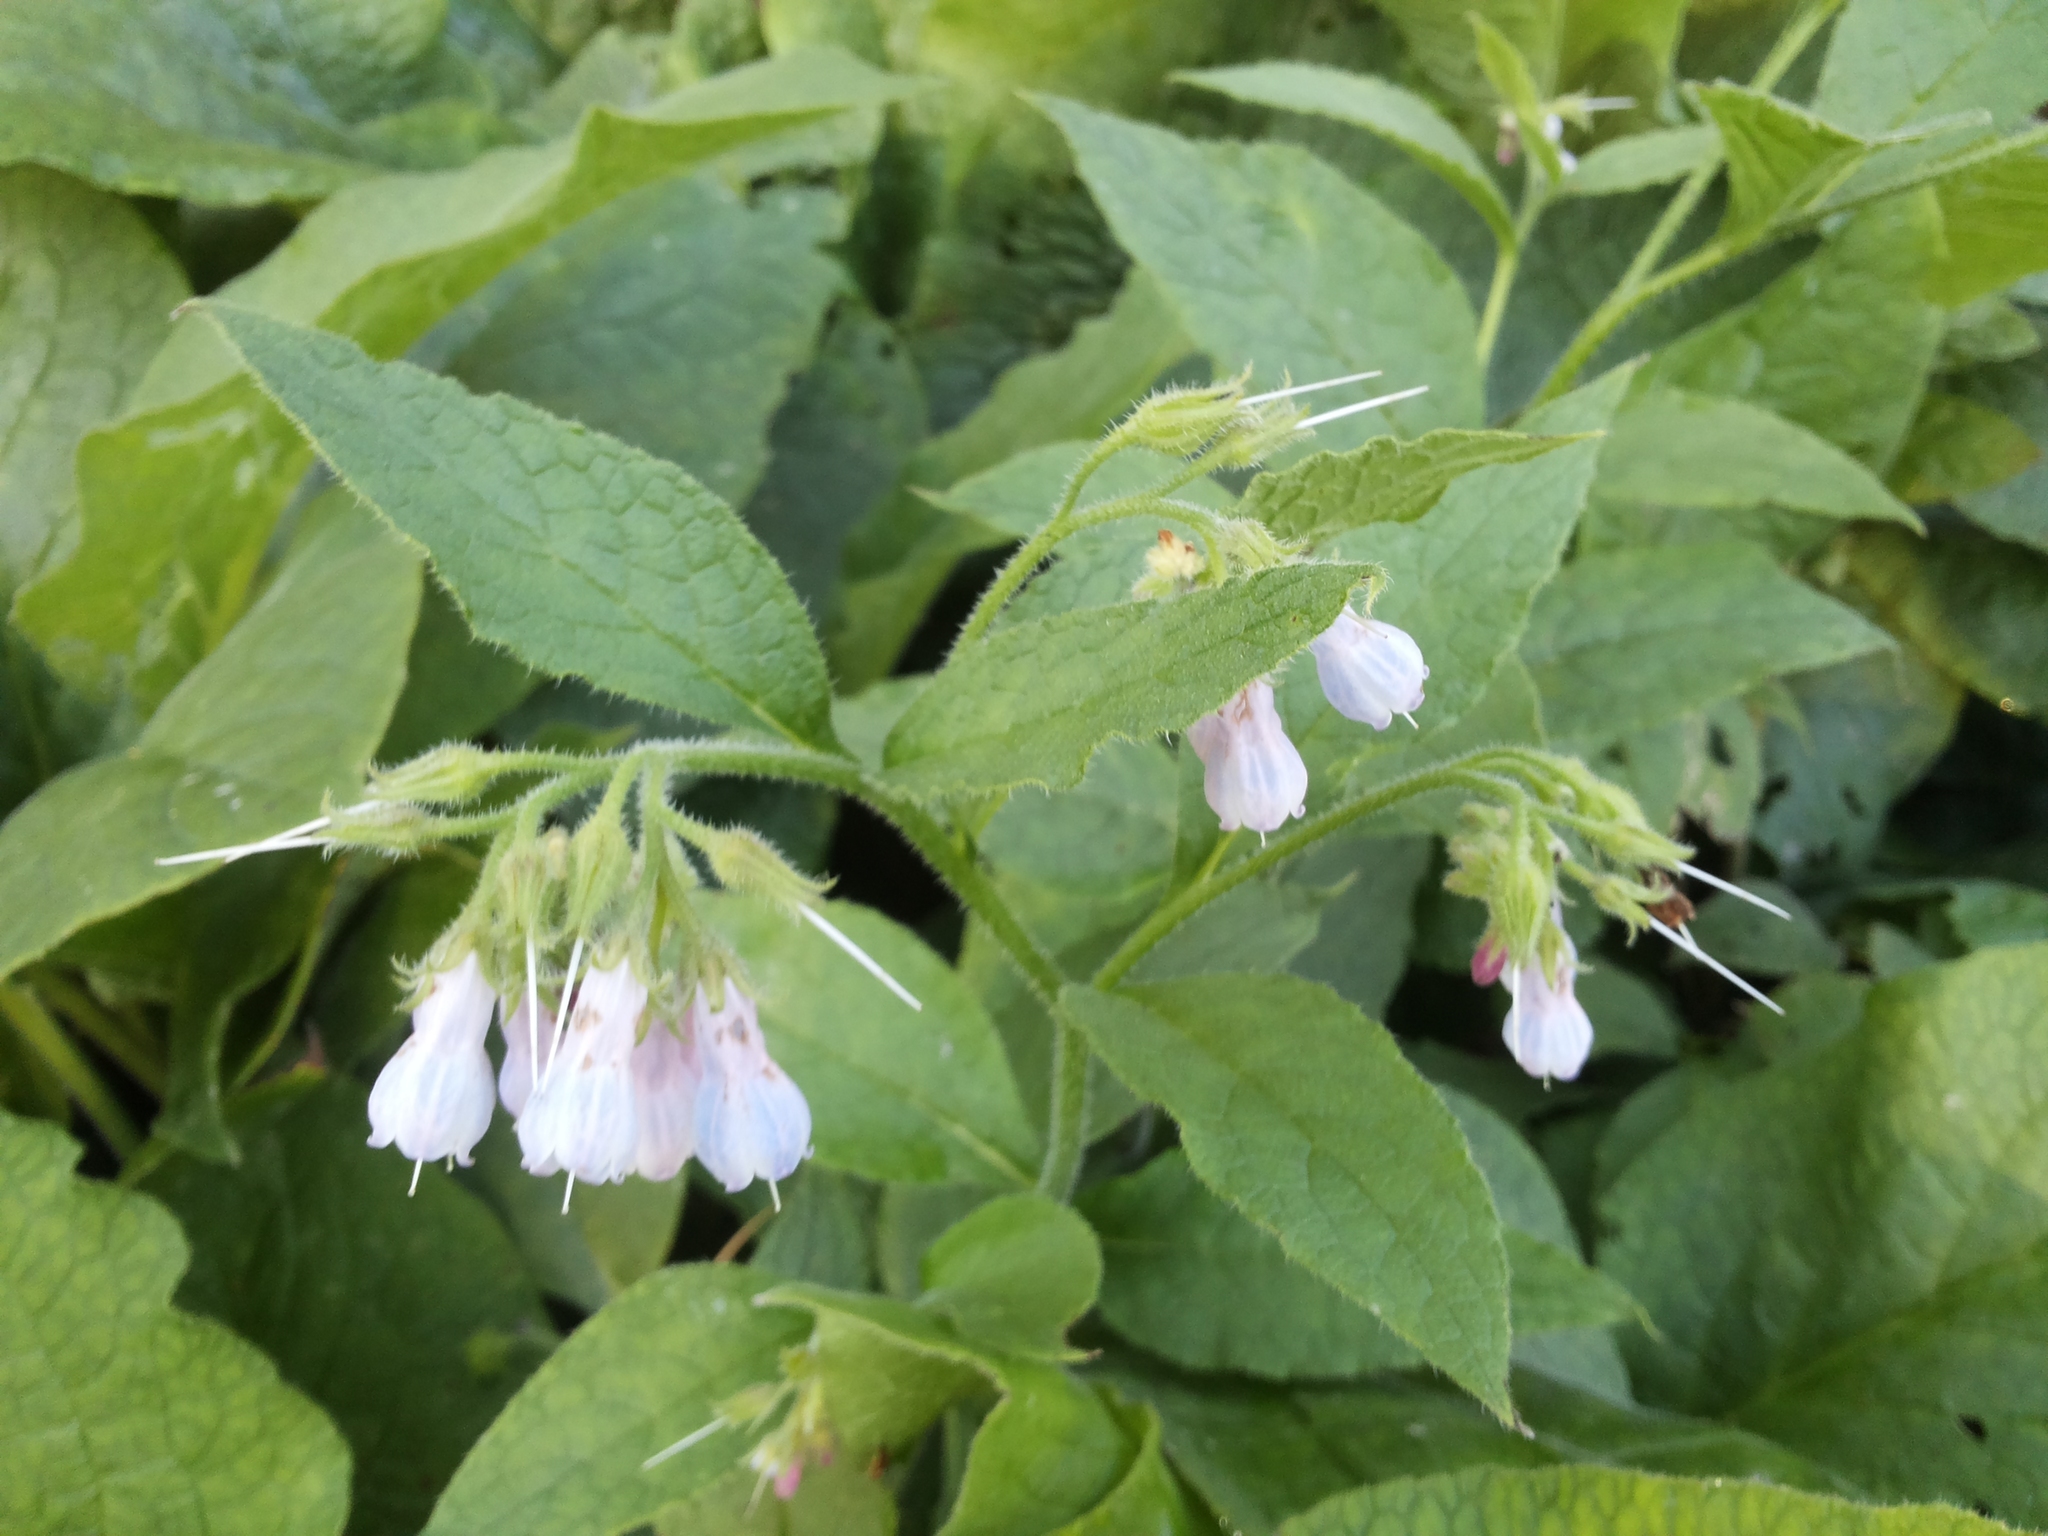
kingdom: Plantae
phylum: Tracheophyta
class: Magnoliopsida
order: Boraginales
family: Boraginaceae
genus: Symphytum
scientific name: Symphytum uplandicum
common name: Russian comfrey
